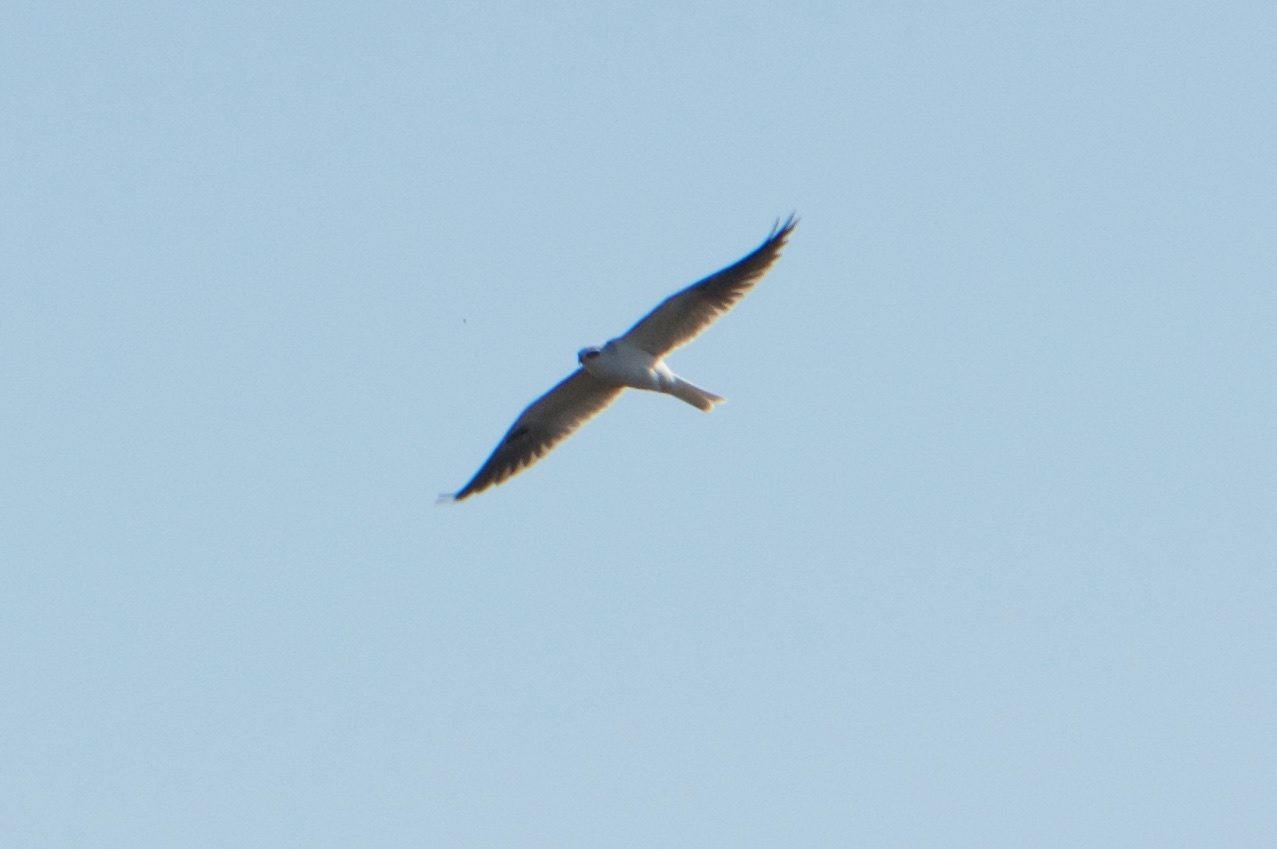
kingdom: Animalia
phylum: Chordata
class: Aves
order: Accipitriformes
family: Accipitridae
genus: Elanus
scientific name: Elanus leucurus
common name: White-tailed kite
